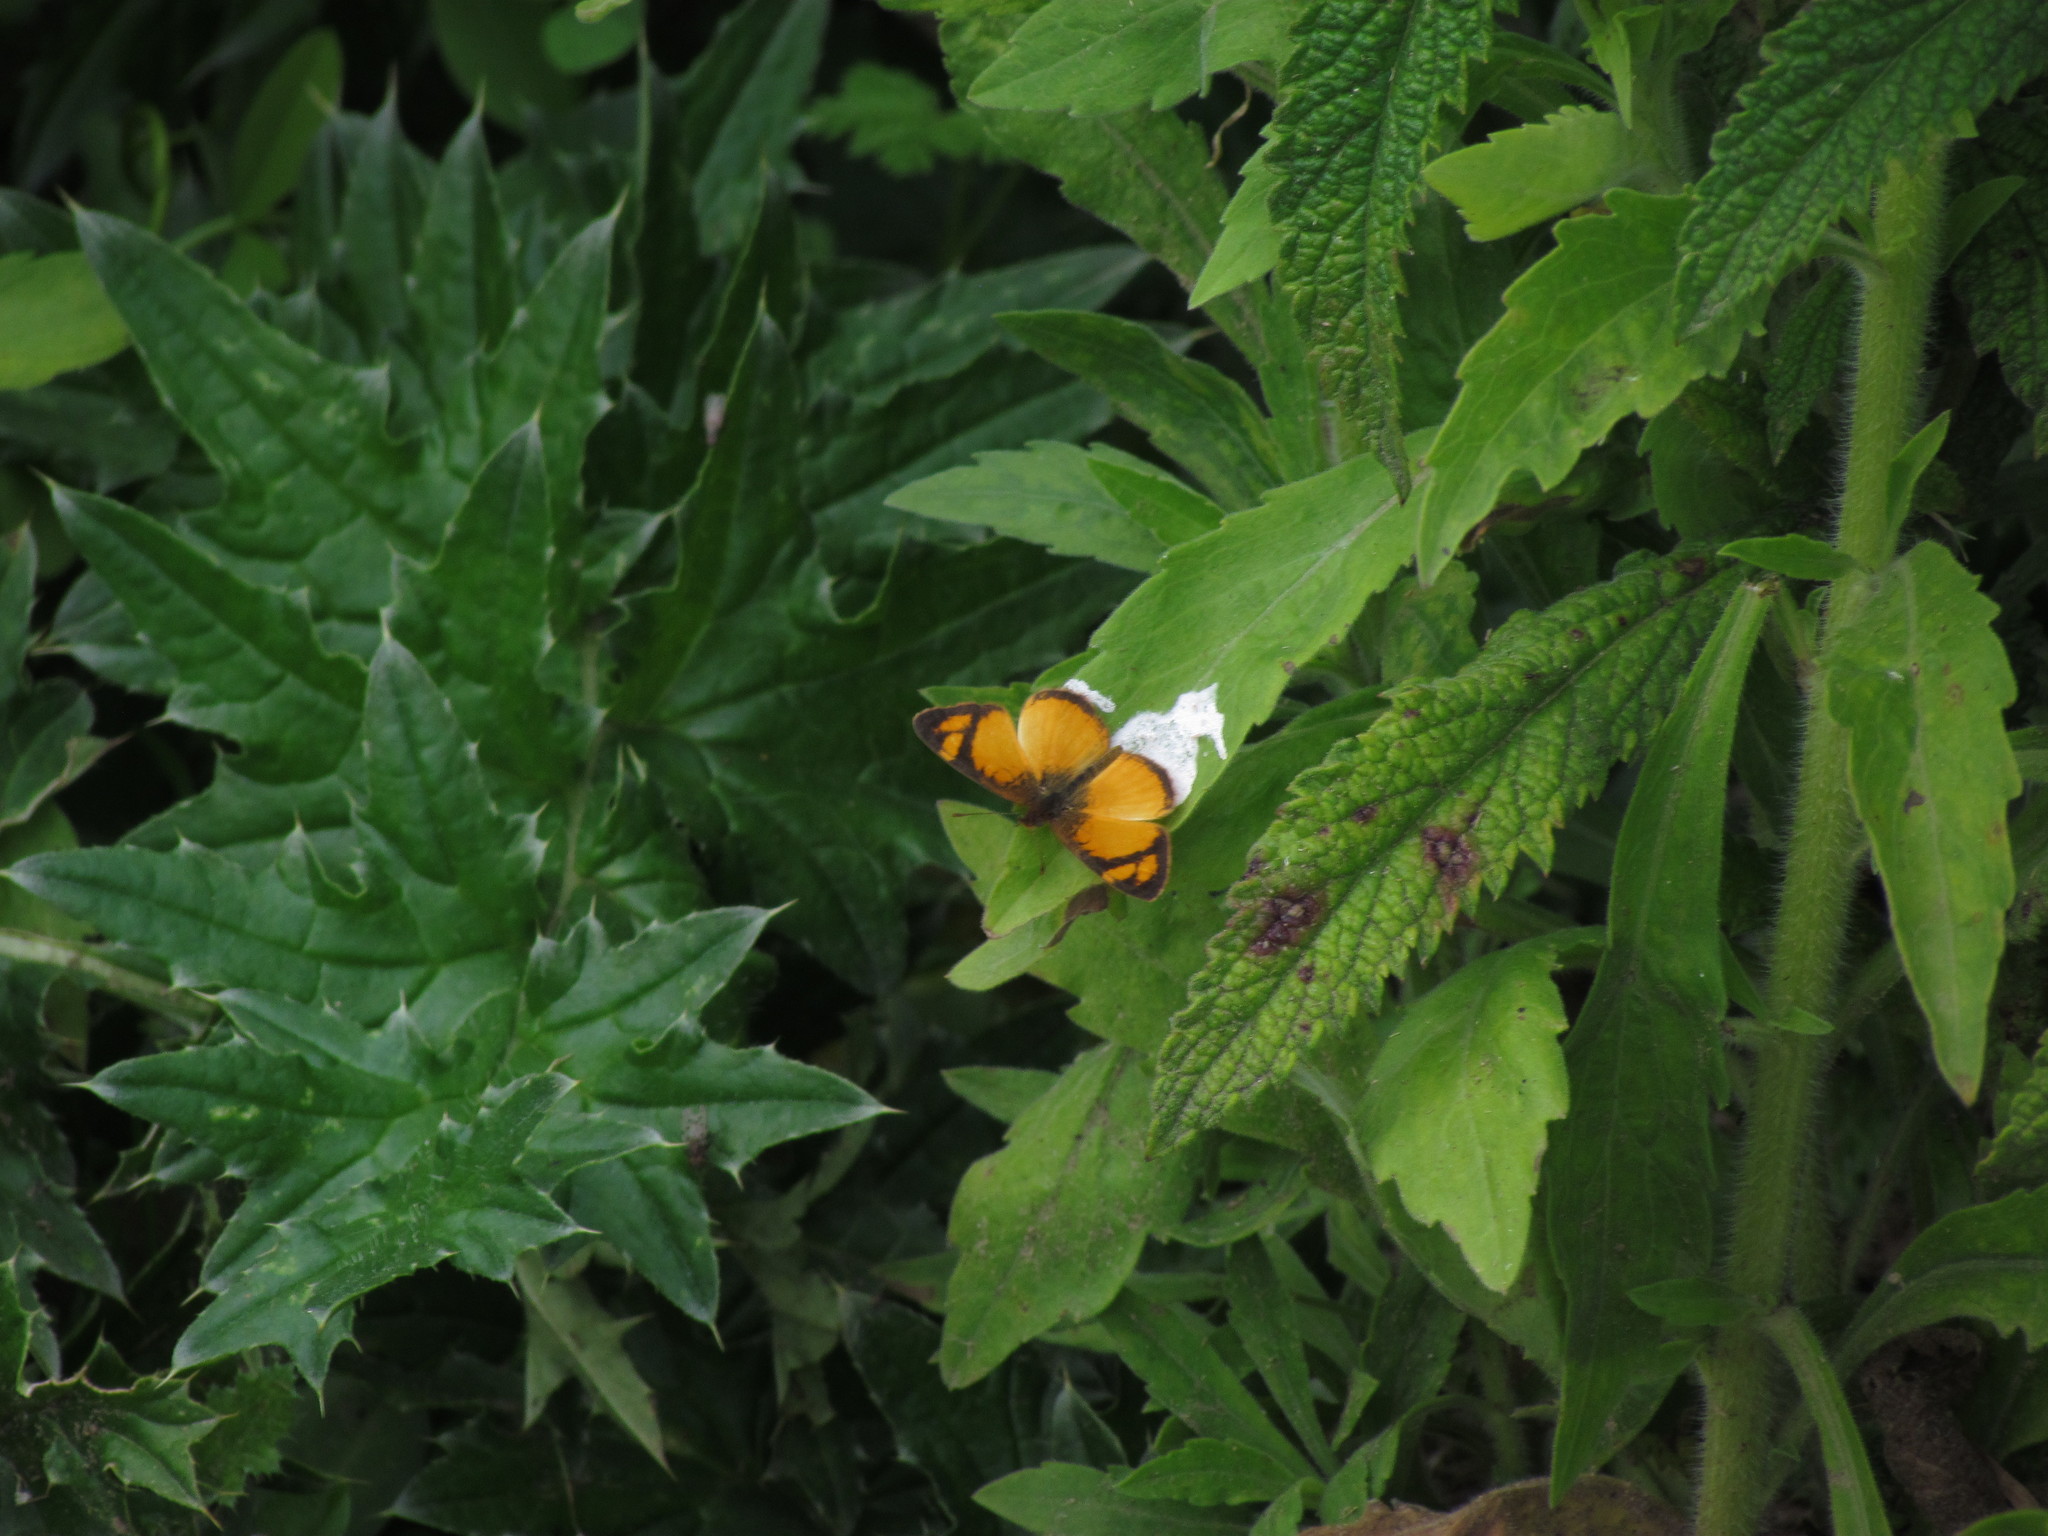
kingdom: Animalia
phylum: Arthropoda
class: Insecta
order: Lepidoptera
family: Nymphalidae
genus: Tegosa
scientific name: Tegosa claudina
